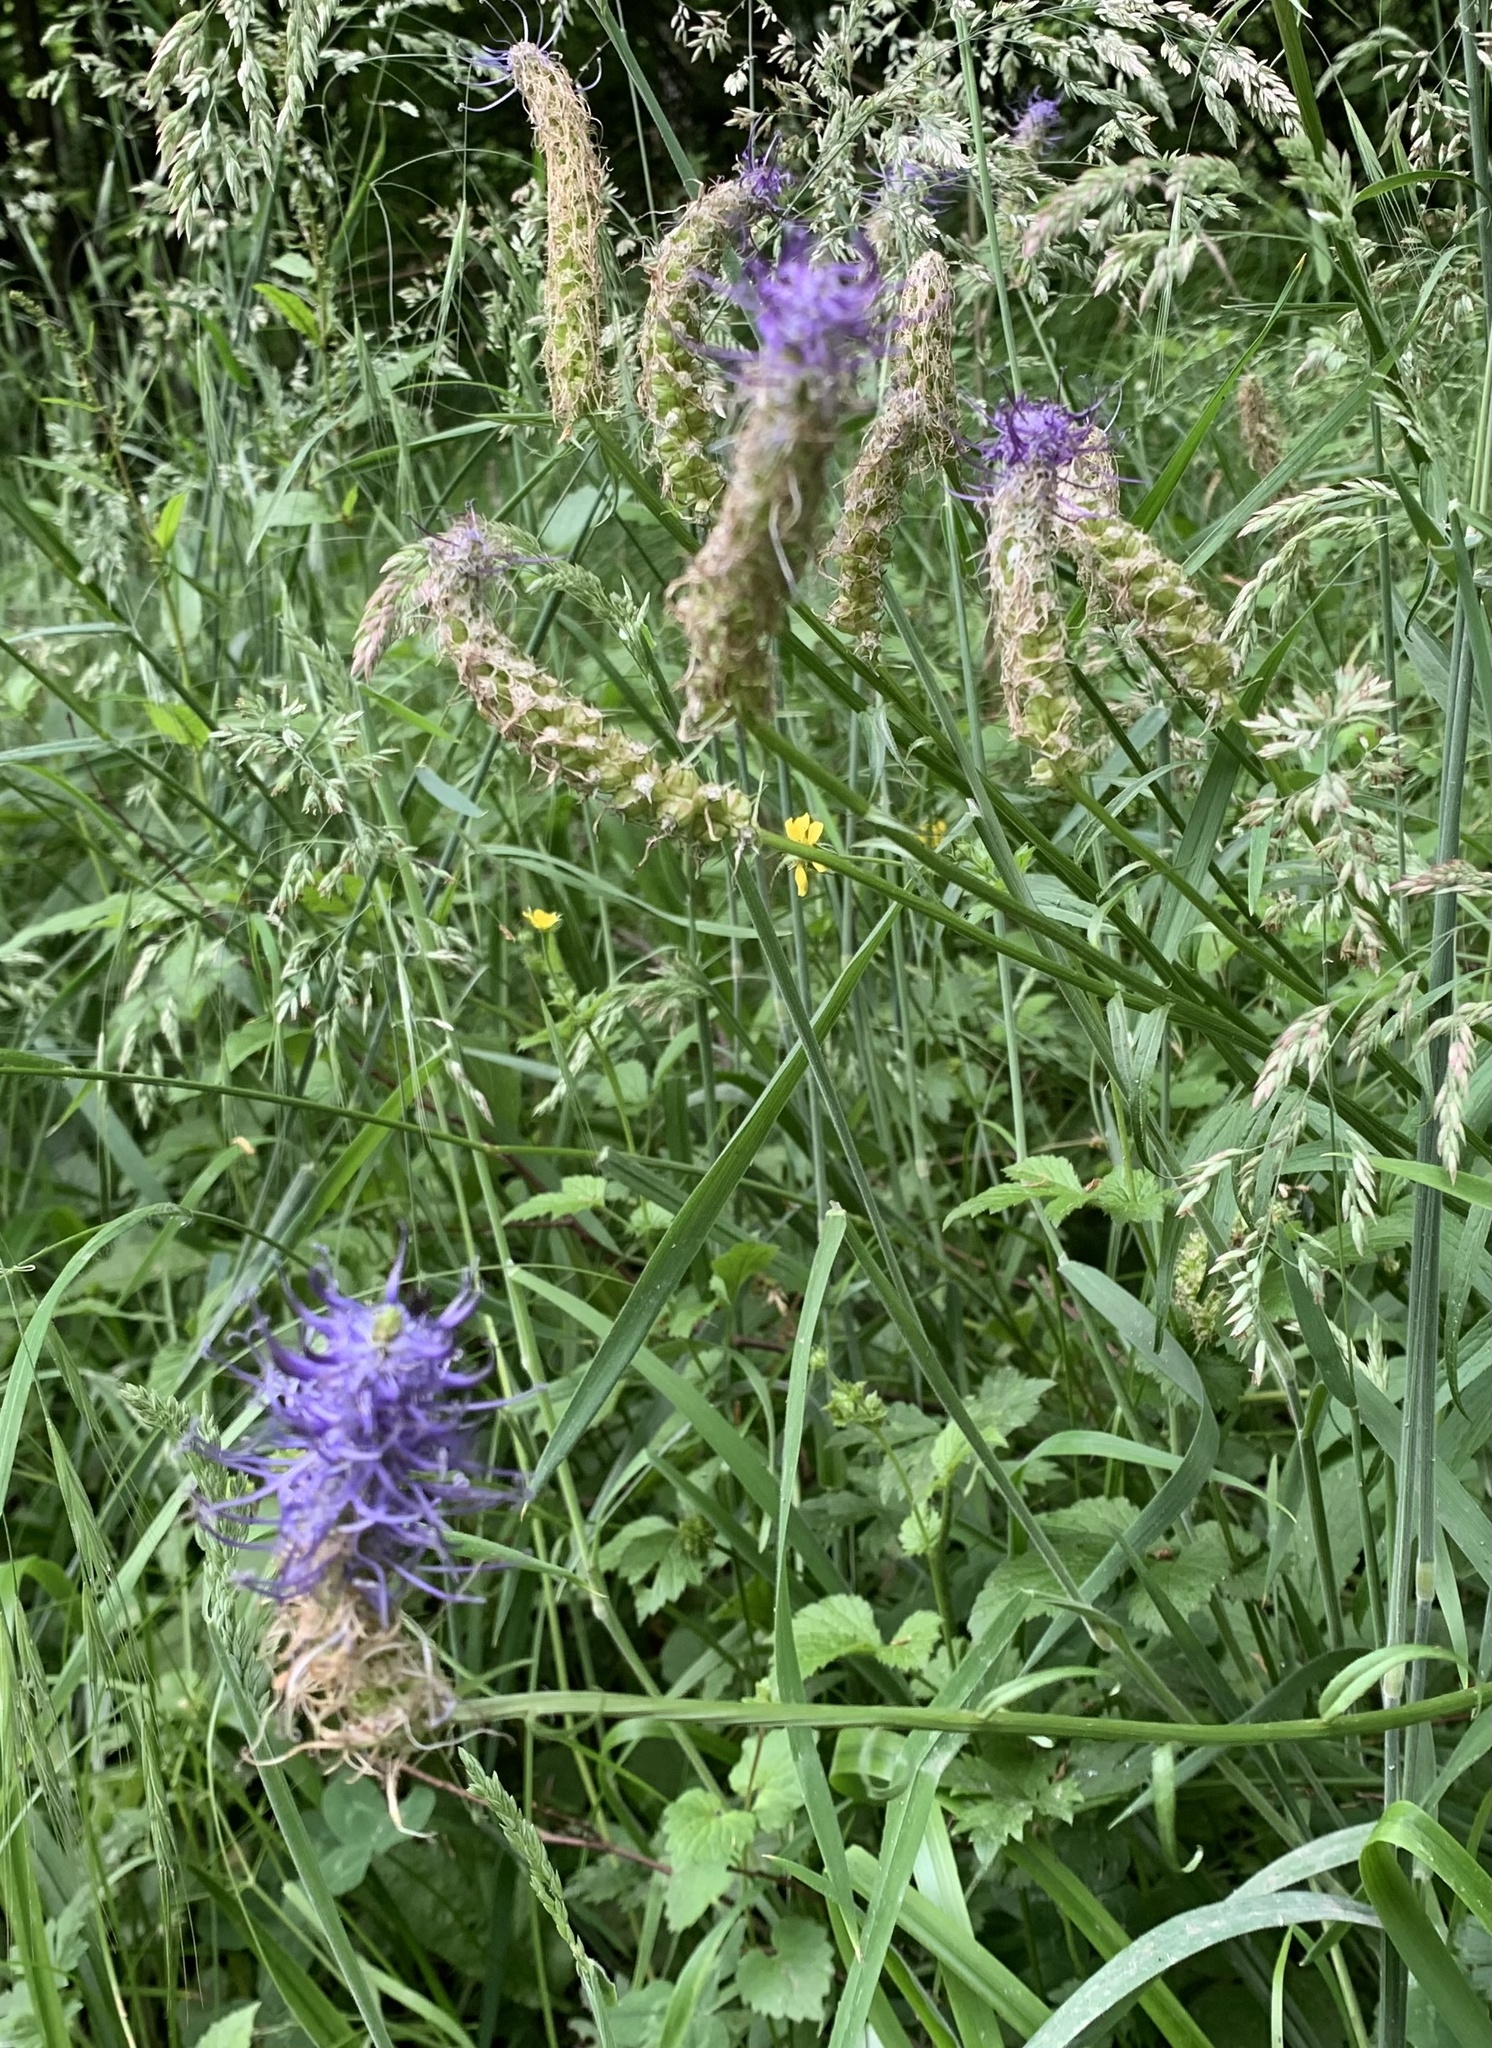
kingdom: Plantae
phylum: Tracheophyta
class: Magnoliopsida
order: Asterales
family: Campanulaceae
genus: Phyteuma
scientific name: Phyteuma nigrum
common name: Black rampion
